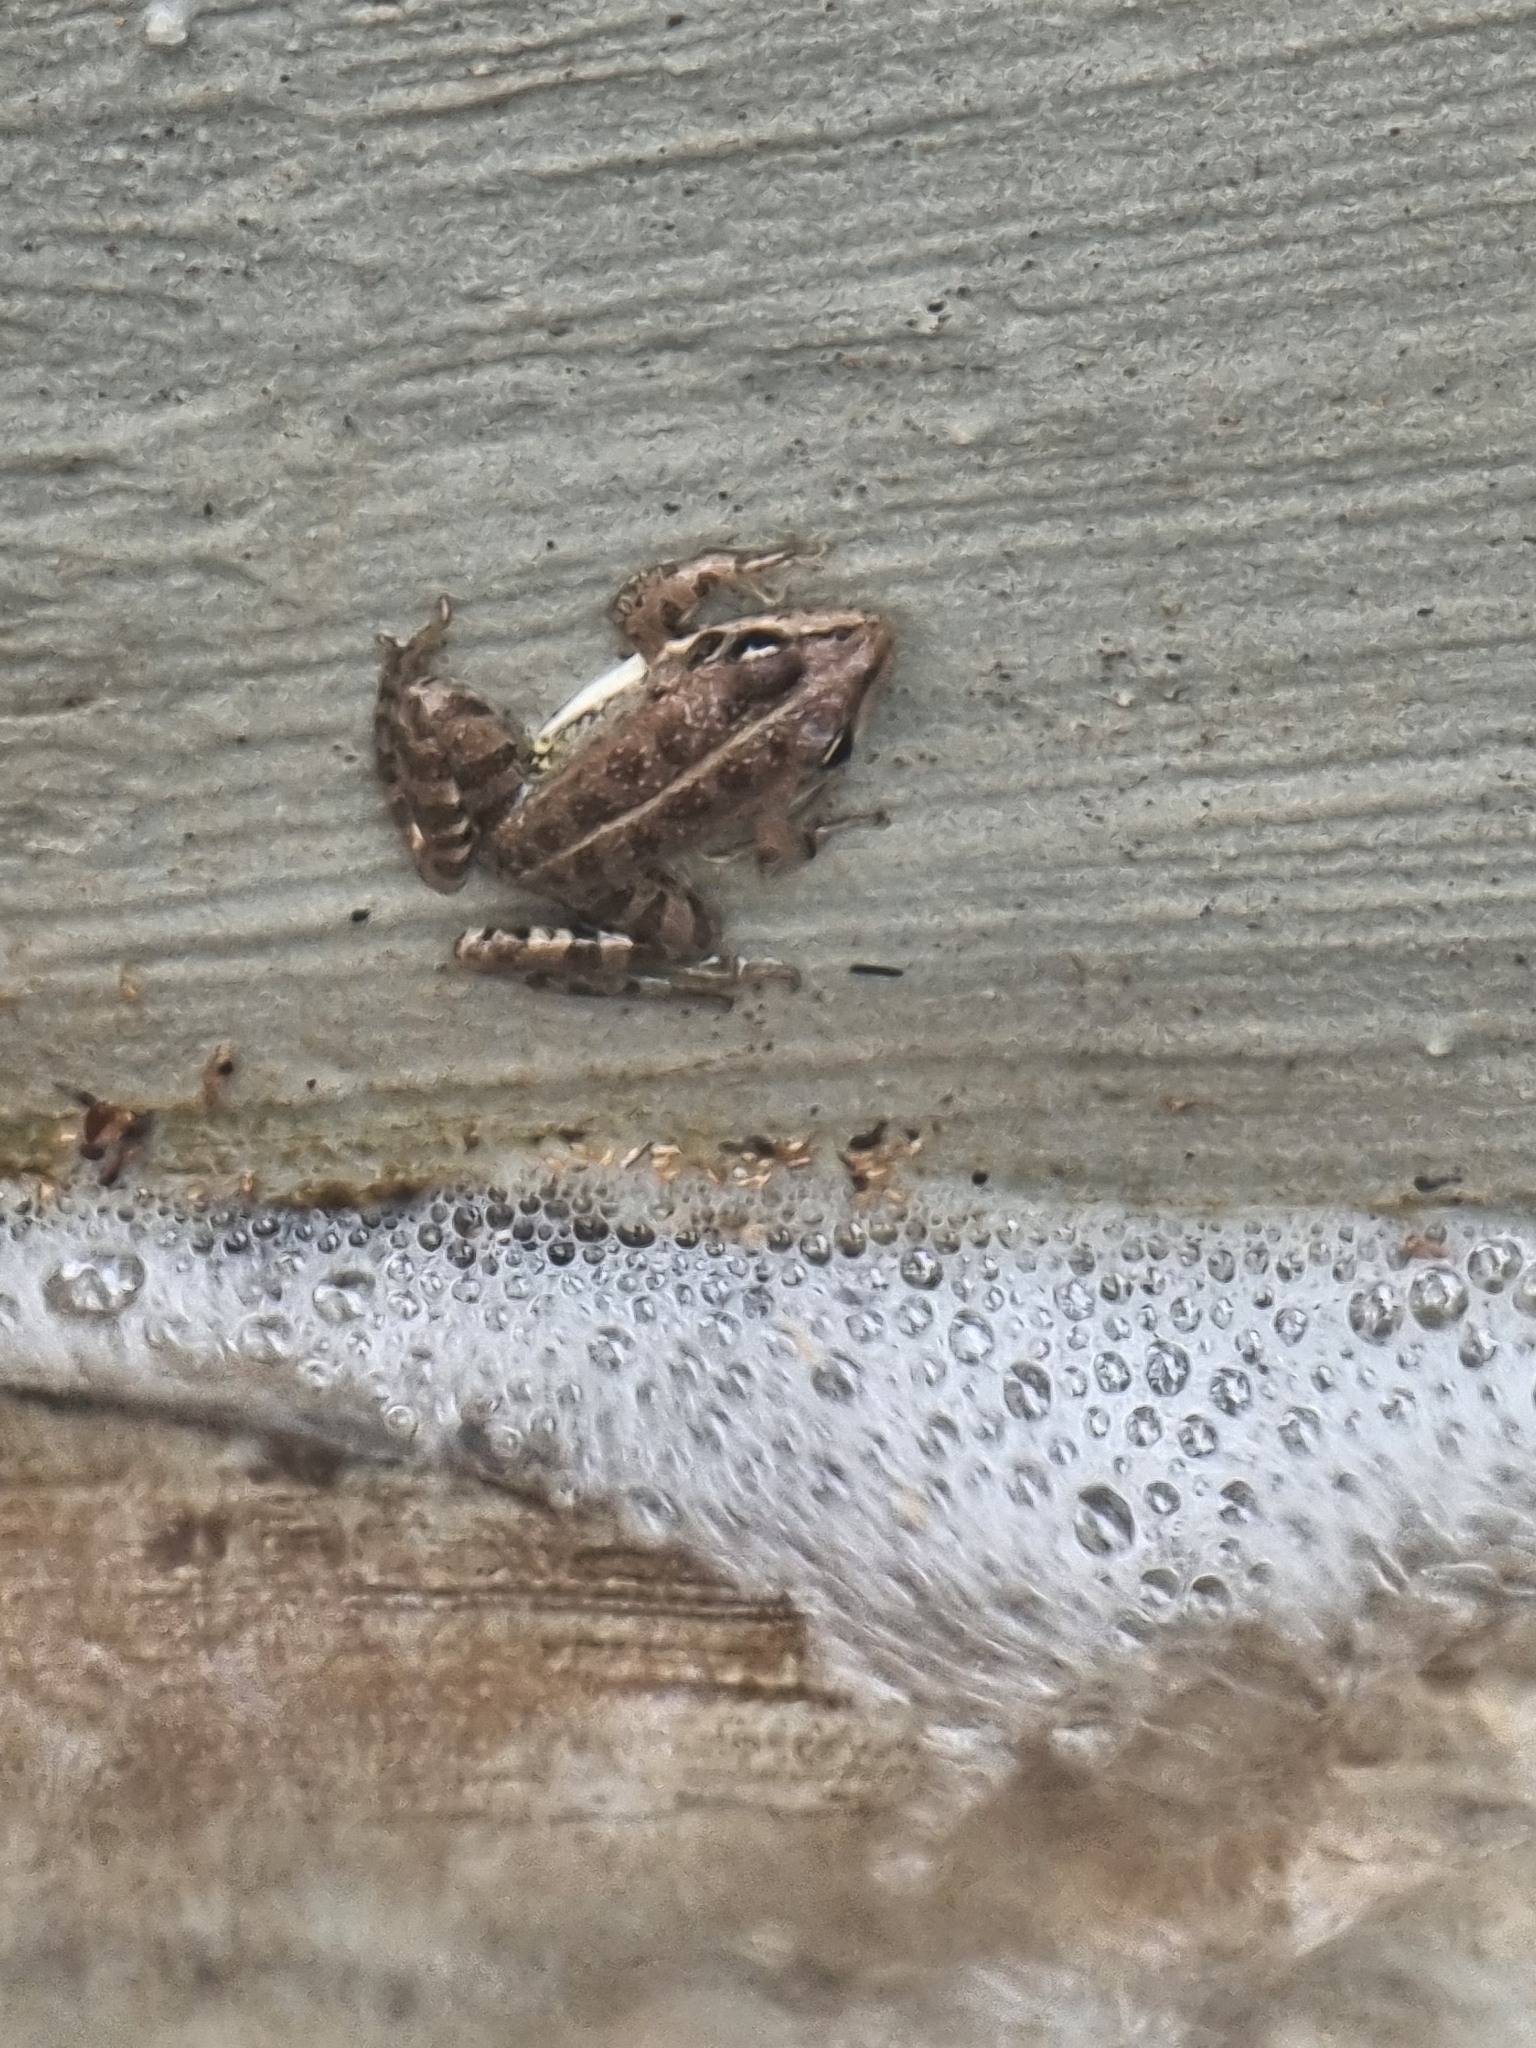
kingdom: Animalia
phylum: Chordata
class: Amphibia
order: Anura
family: Ranidae
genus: Pelophylax
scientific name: Pelophylax perezi
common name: Perez's frog
